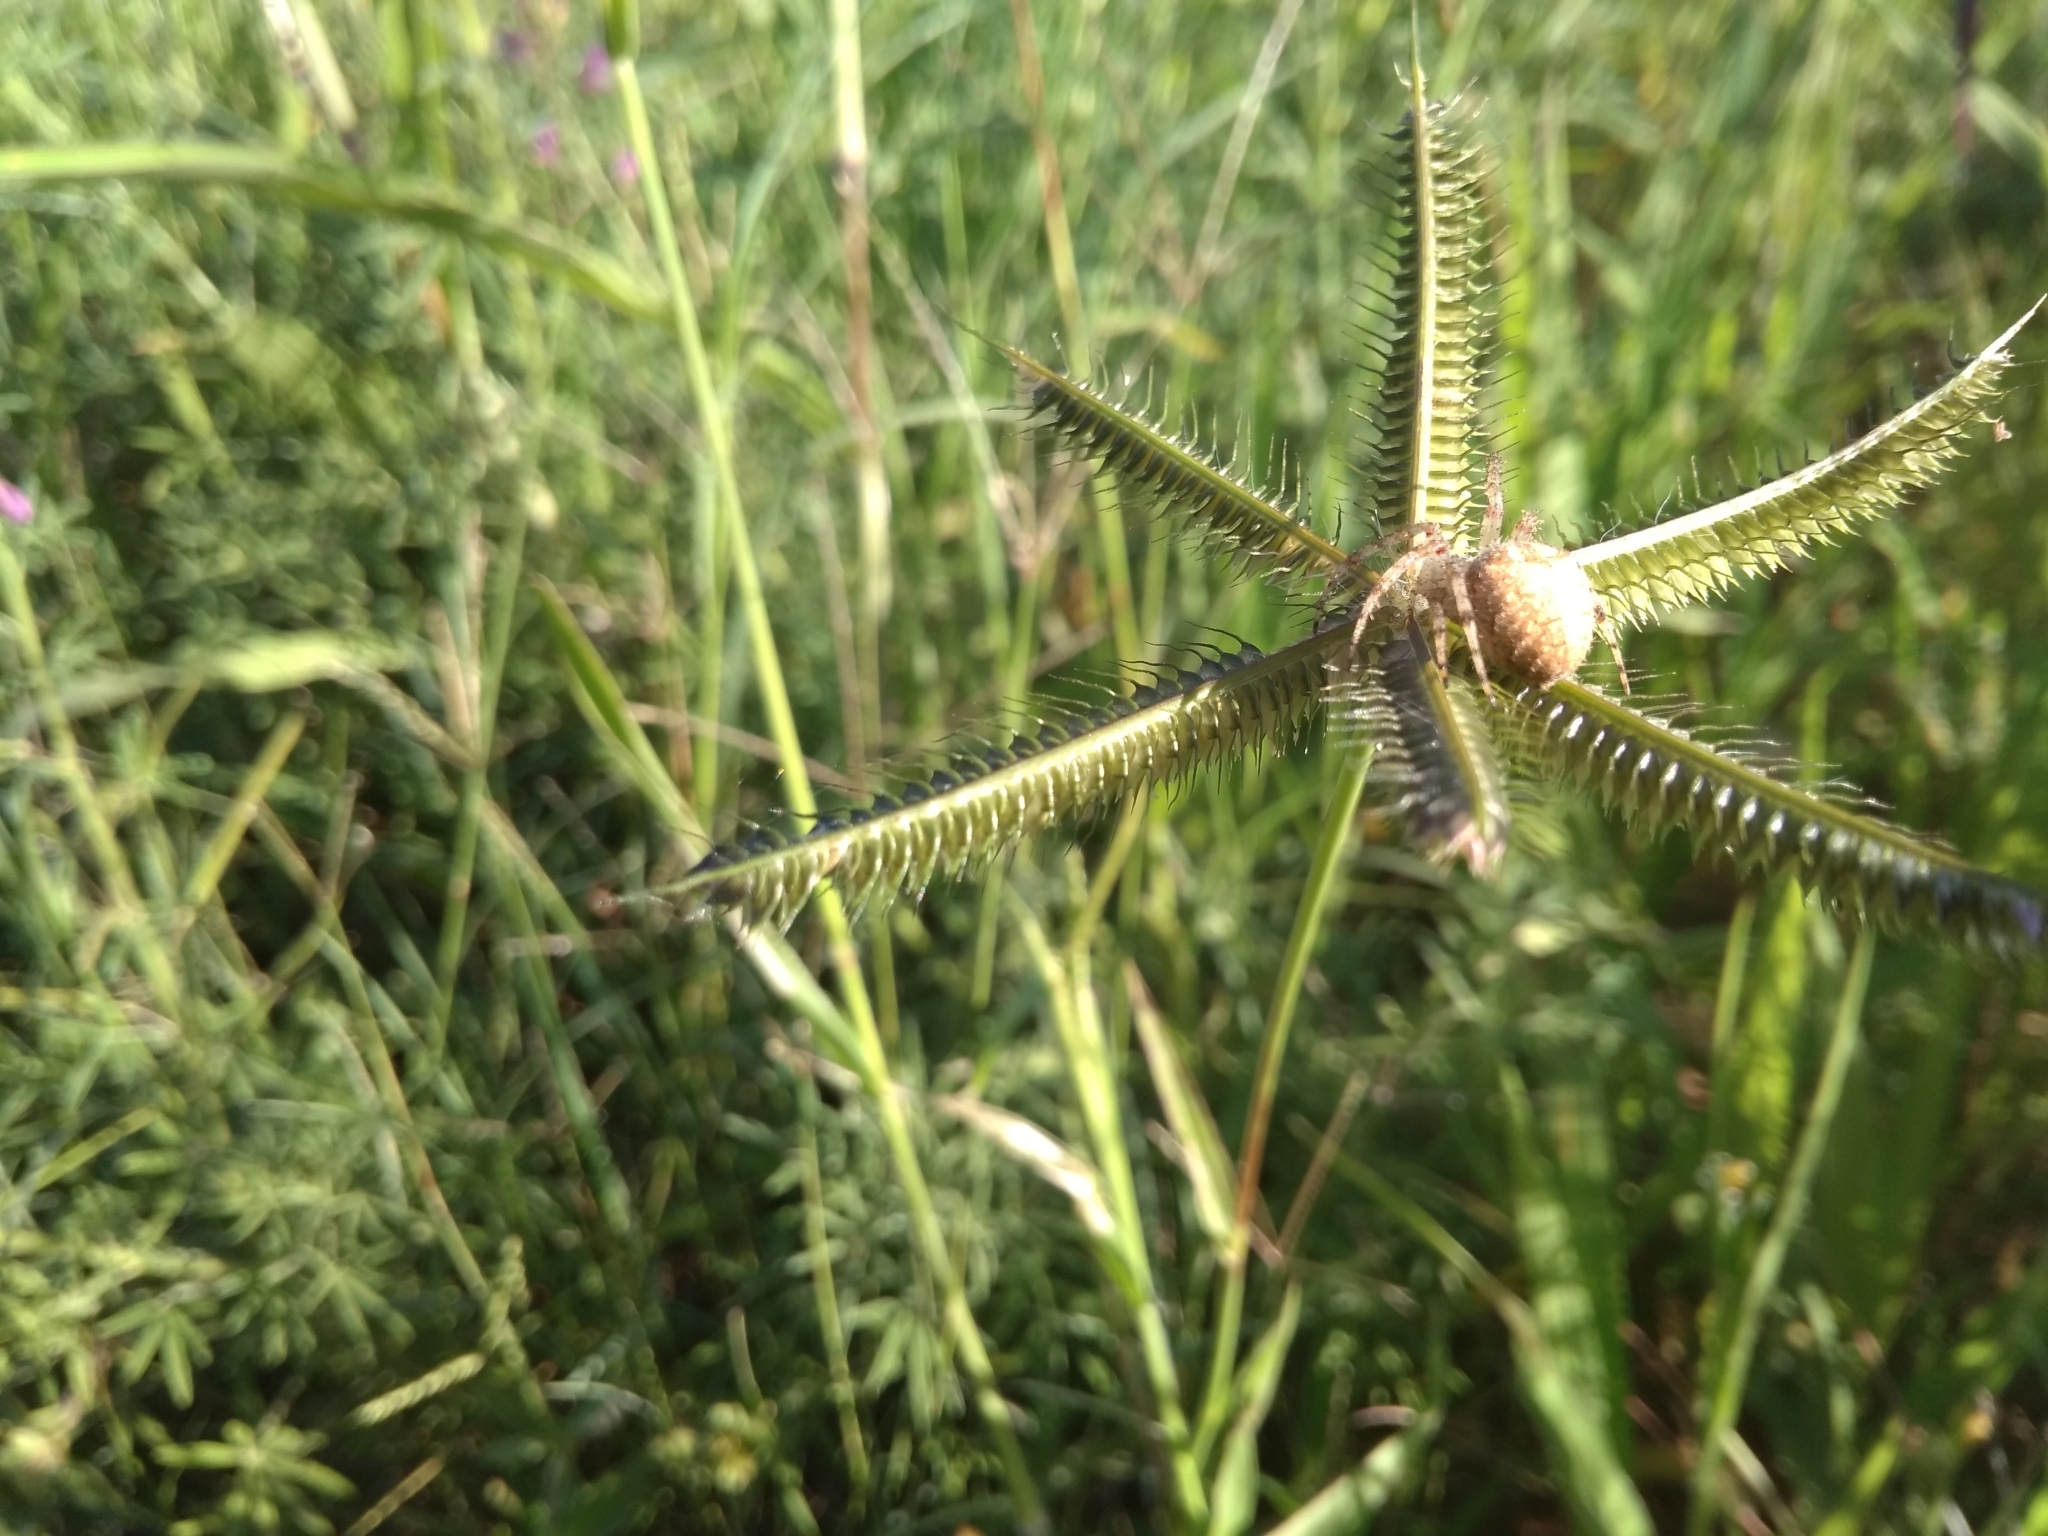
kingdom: Animalia
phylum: Arthropoda
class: Arachnida
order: Araneae
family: Araneidae
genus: Pararaneus
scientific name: Pararaneus cyrtoscapus
